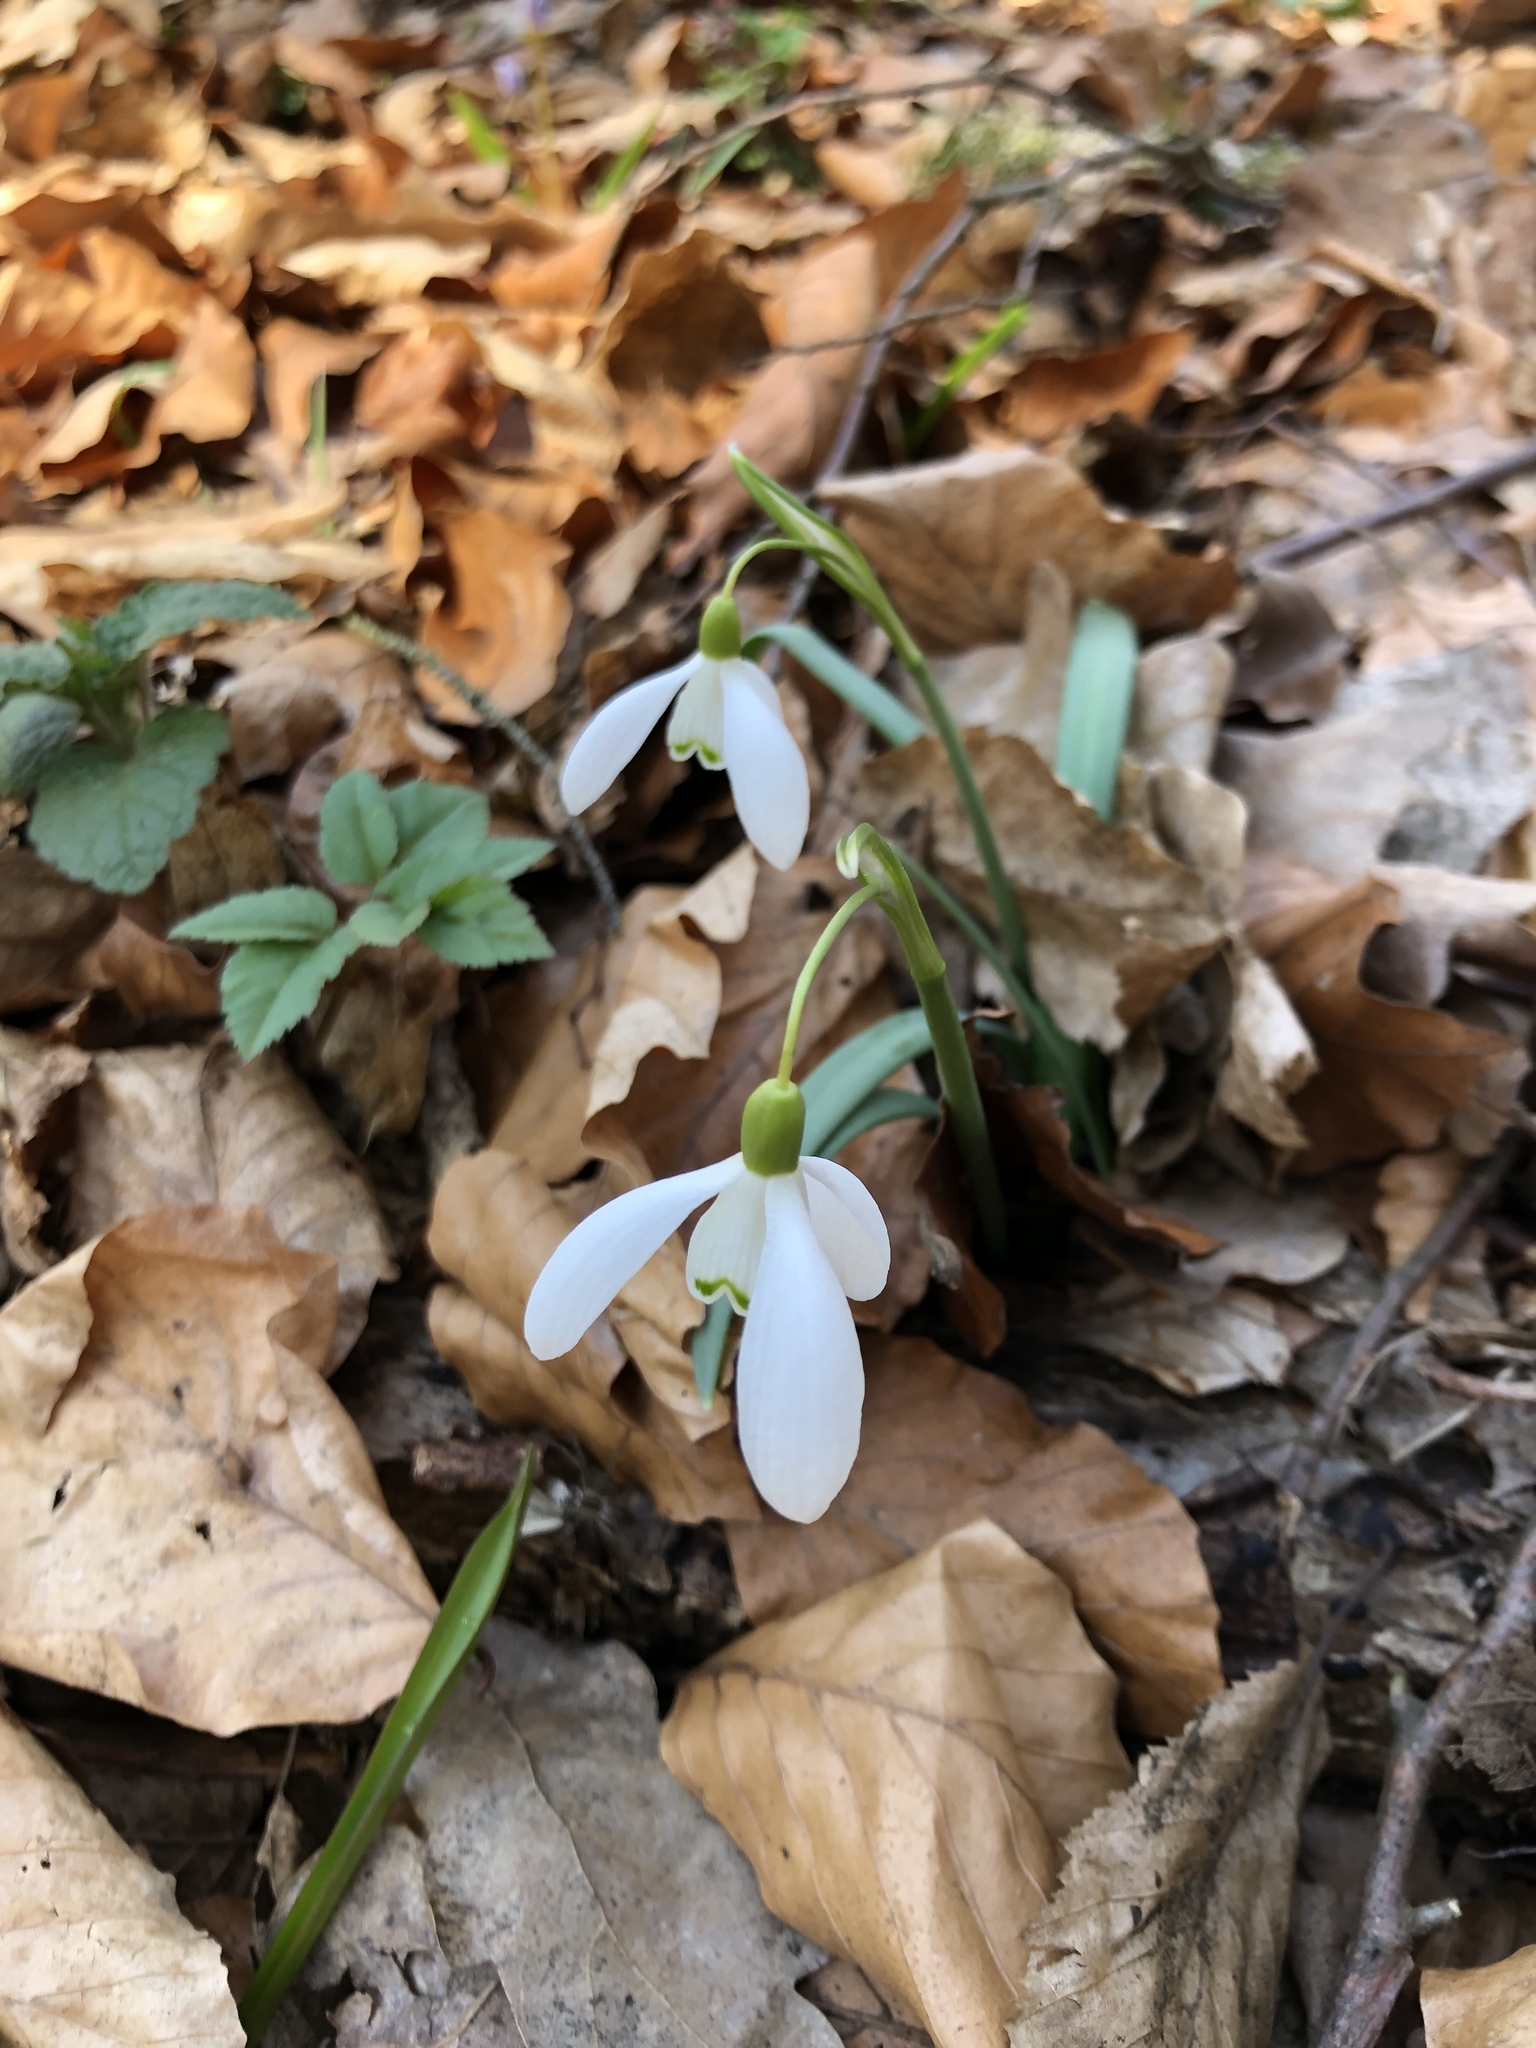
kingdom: Plantae
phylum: Tracheophyta
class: Liliopsida
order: Asparagales
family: Amaryllidaceae
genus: Galanthus
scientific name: Galanthus nivalis
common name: Snowdrop
